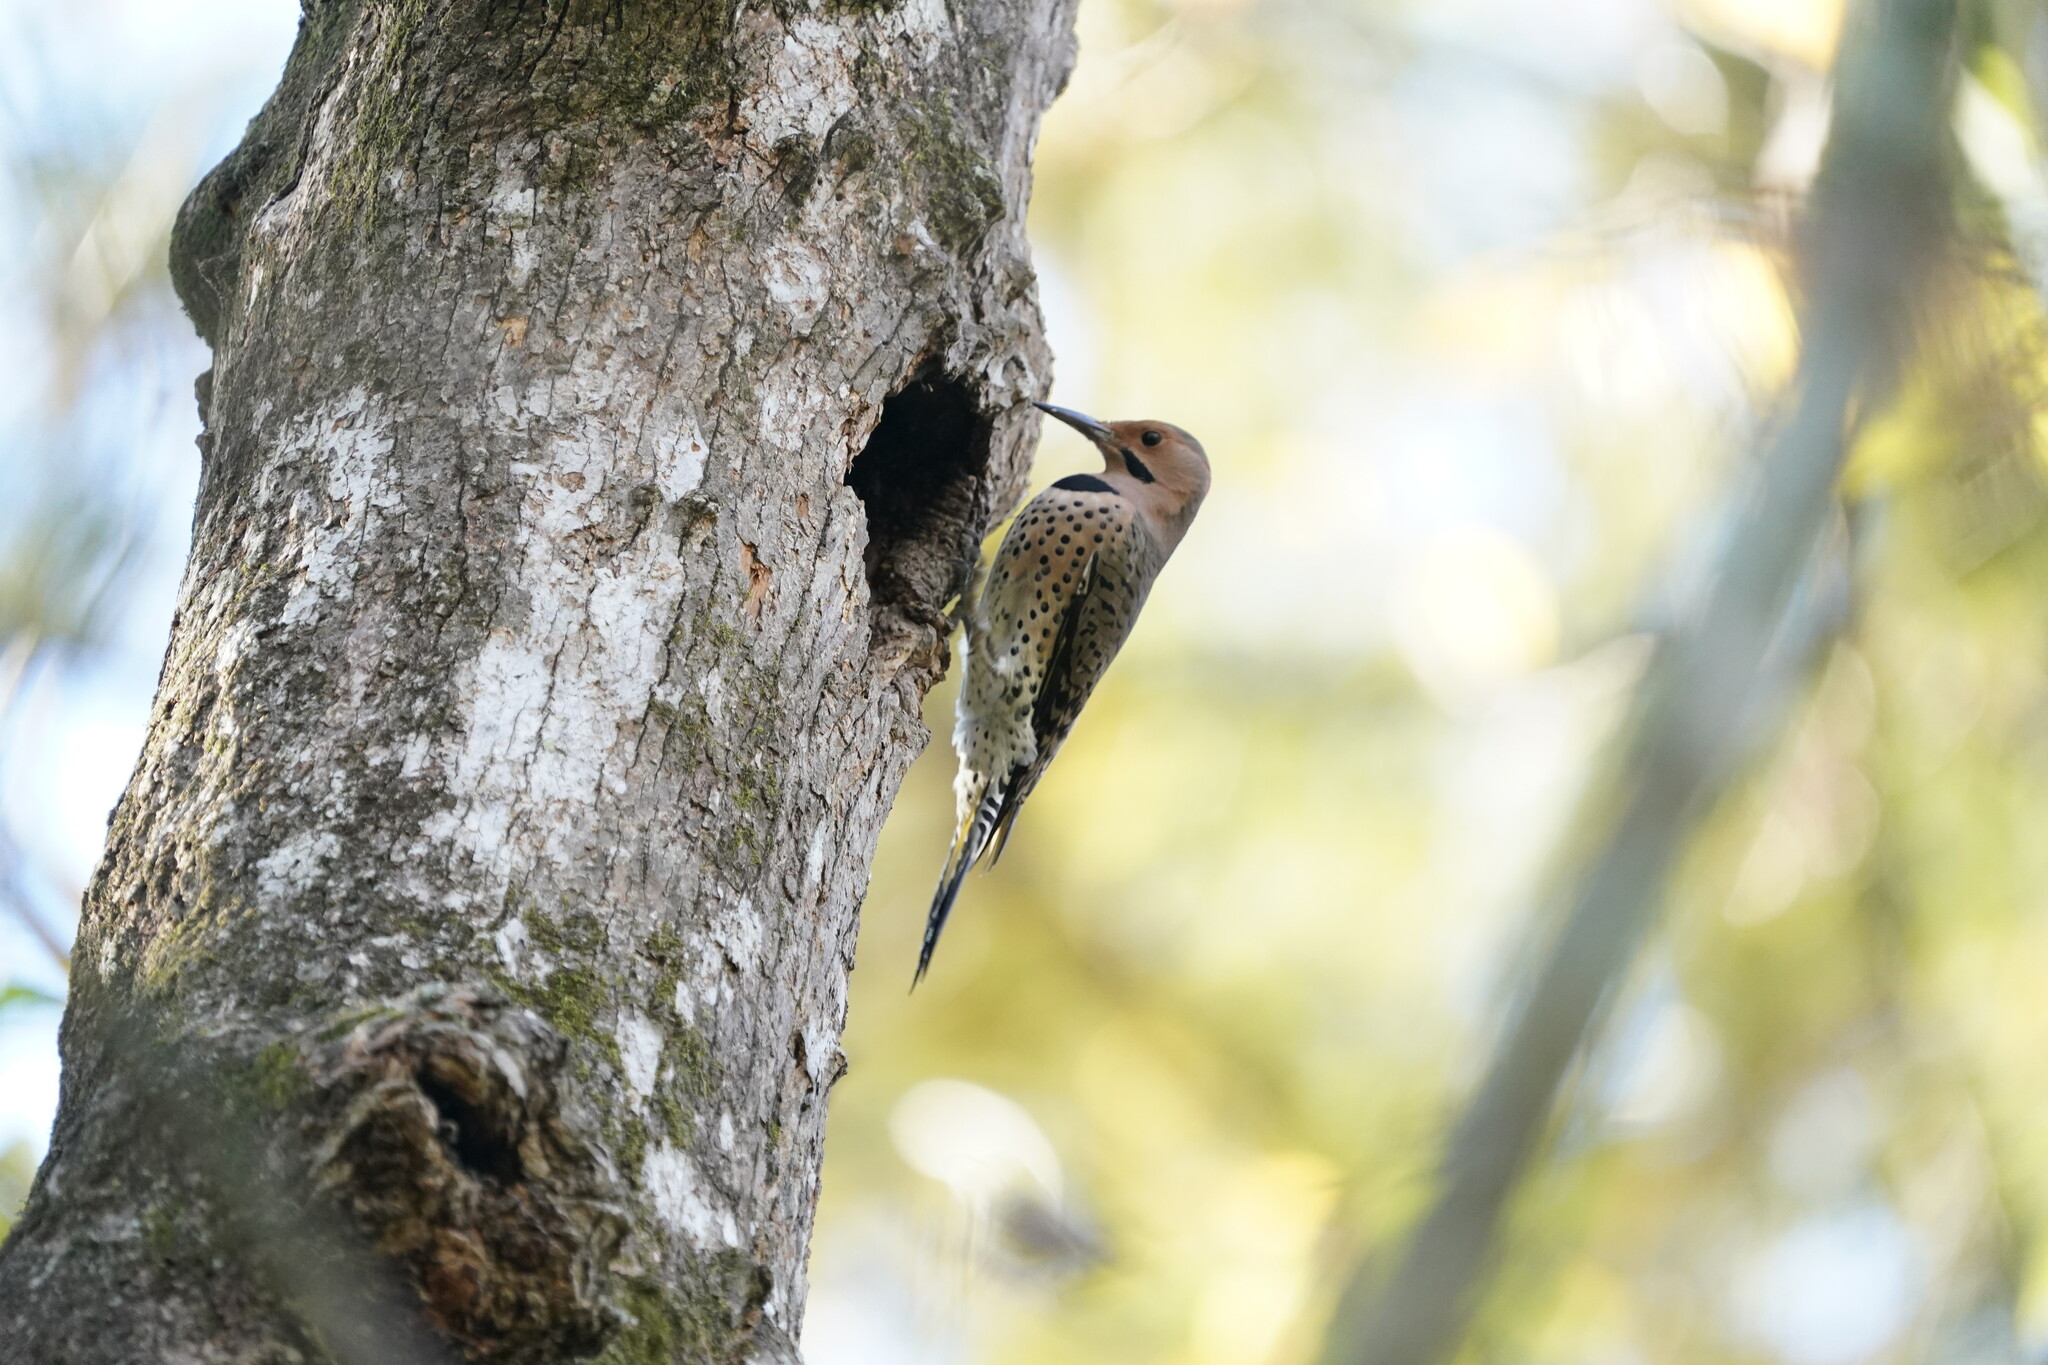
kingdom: Animalia
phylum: Chordata
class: Aves
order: Piciformes
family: Picidae
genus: Colaptes
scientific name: Colaptes auratus
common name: Northern flicker
